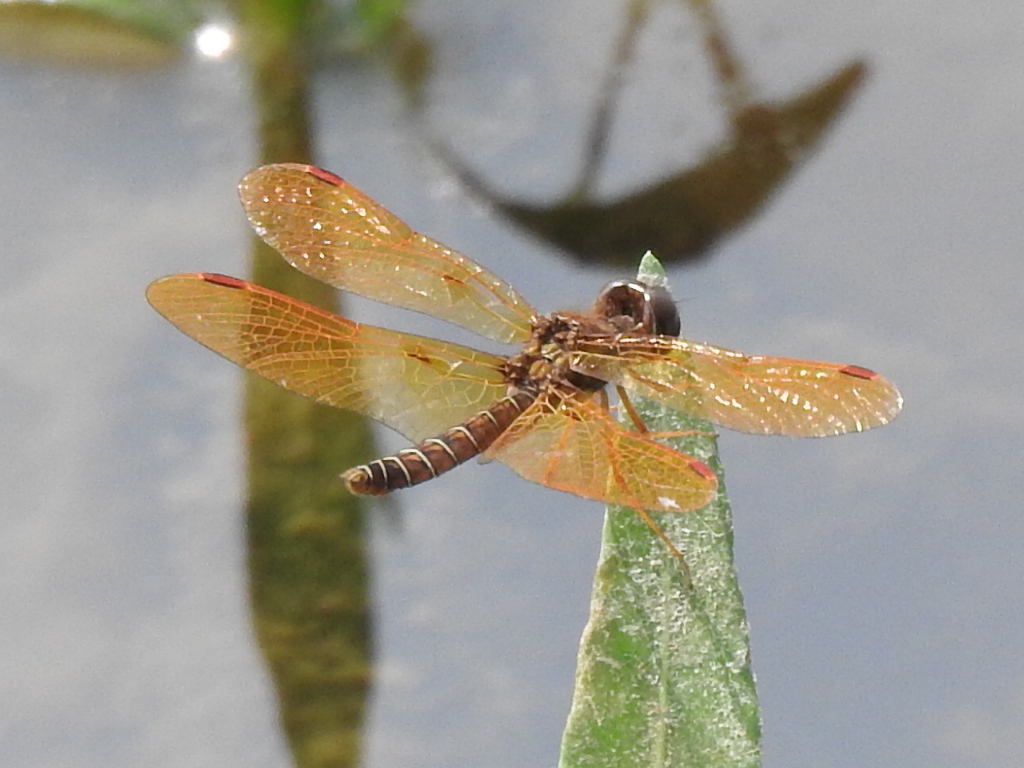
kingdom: Animalia
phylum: Arthropoda
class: Insecta
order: Odonata
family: Libellulidae
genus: Perithemis
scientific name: Perithemis tenera
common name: Eastern amberwing
